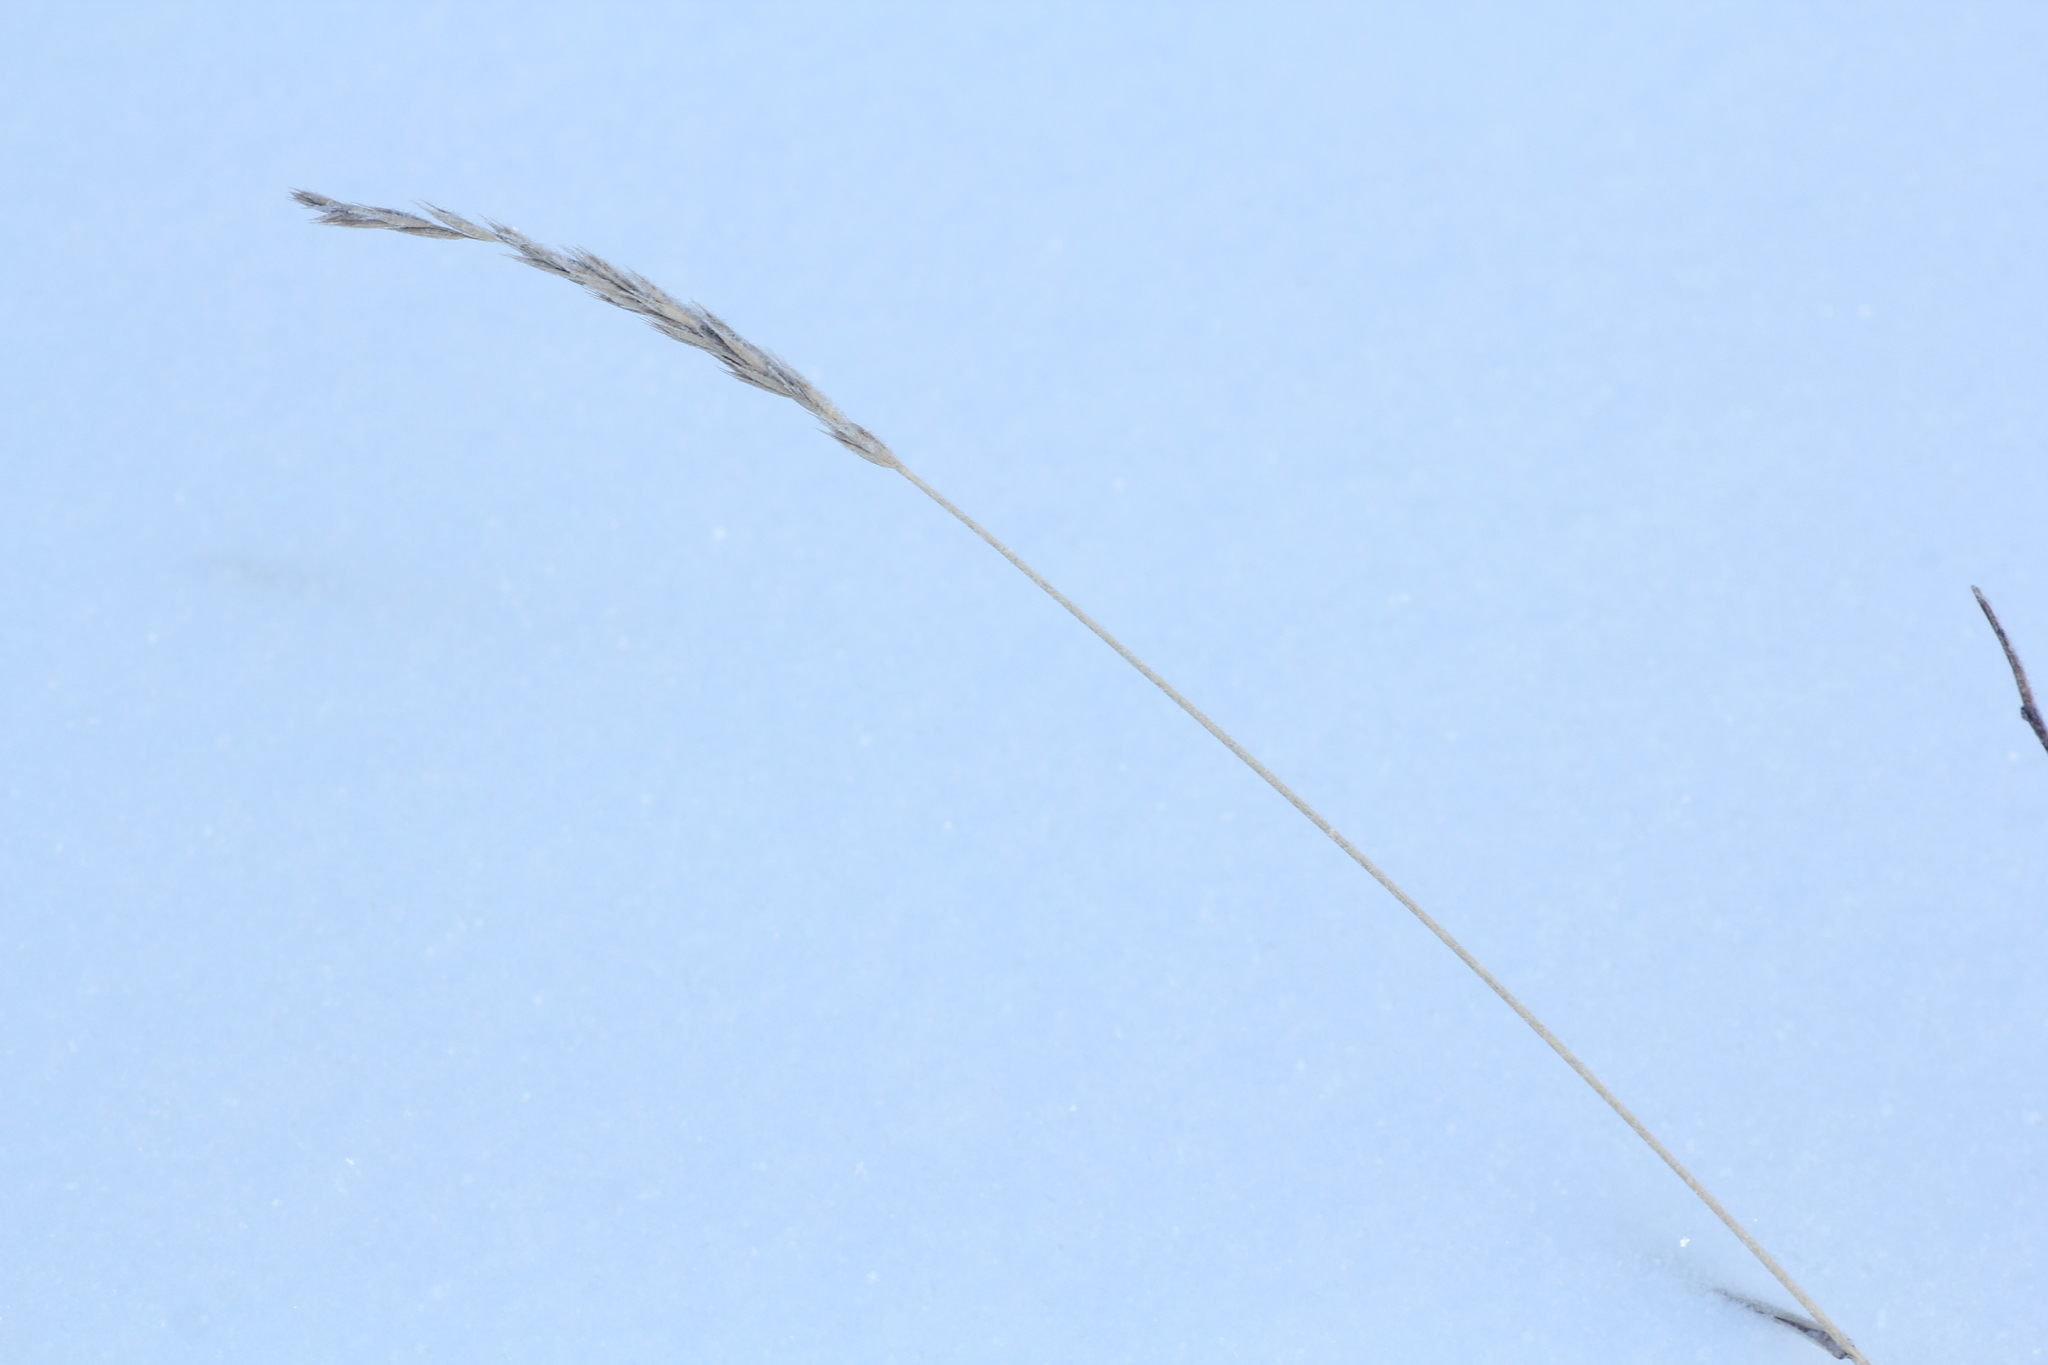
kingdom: Plantae
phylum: Tracheophyta
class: Liliopsida
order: Poales
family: Poaceae
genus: Elymus
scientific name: Elymus repens
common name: Quackgrass
